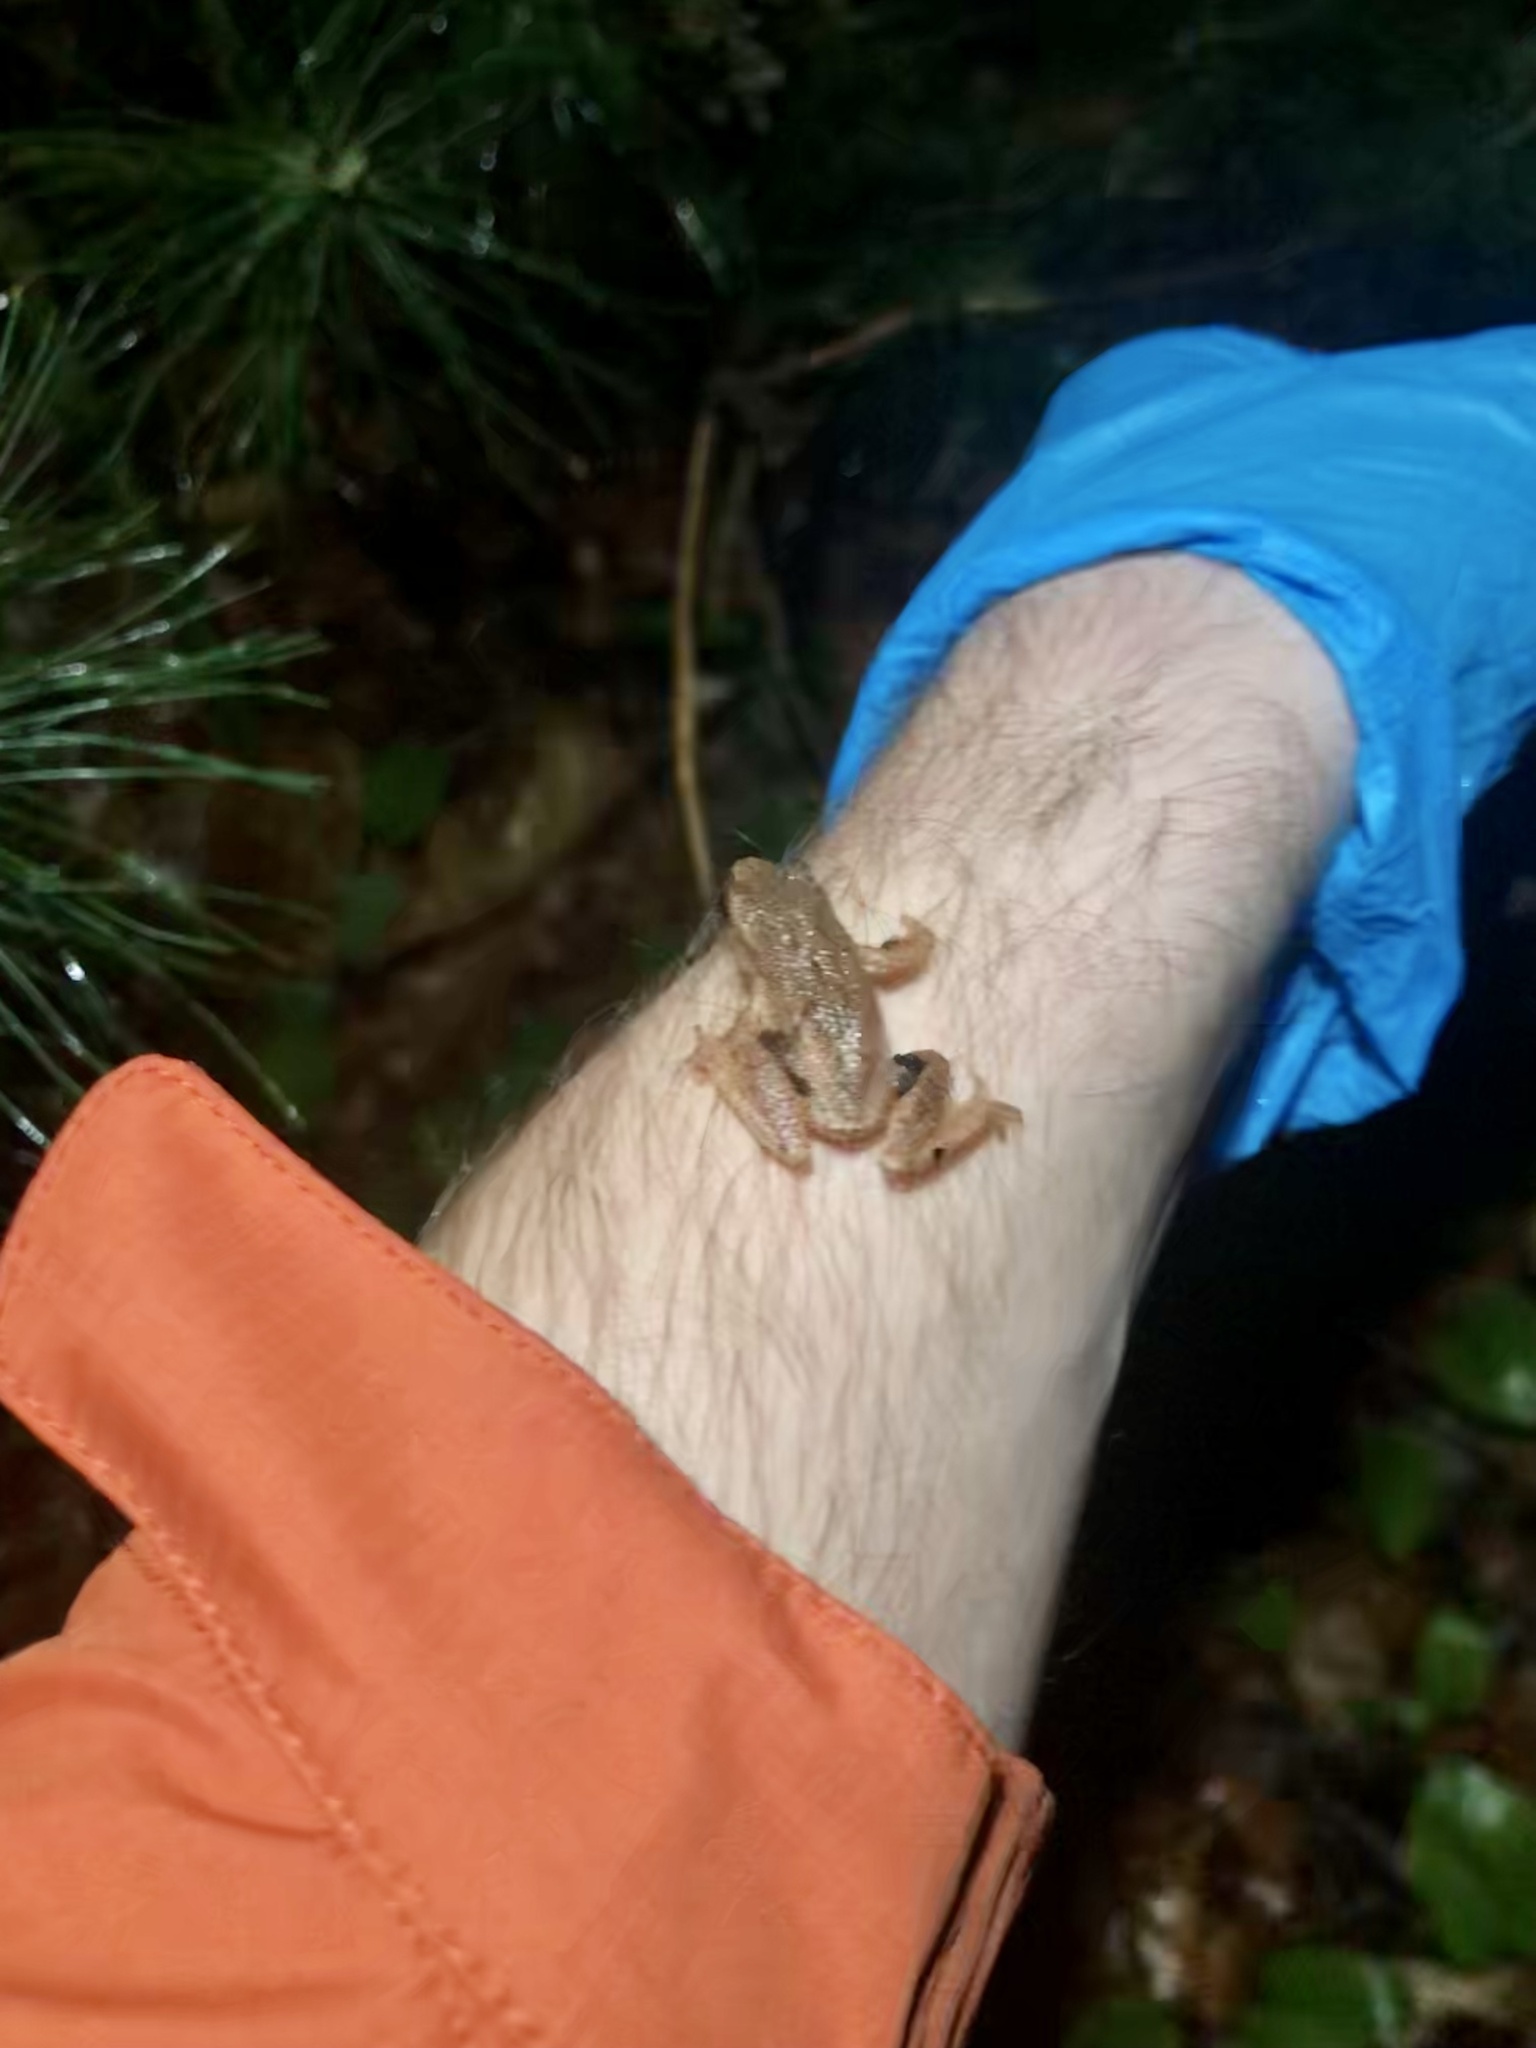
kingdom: Animalia
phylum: Chordata
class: Amphibia
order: Anura
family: Hylidae
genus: Pseudacris
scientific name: Pseudacris crucifer
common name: Spring peeper
